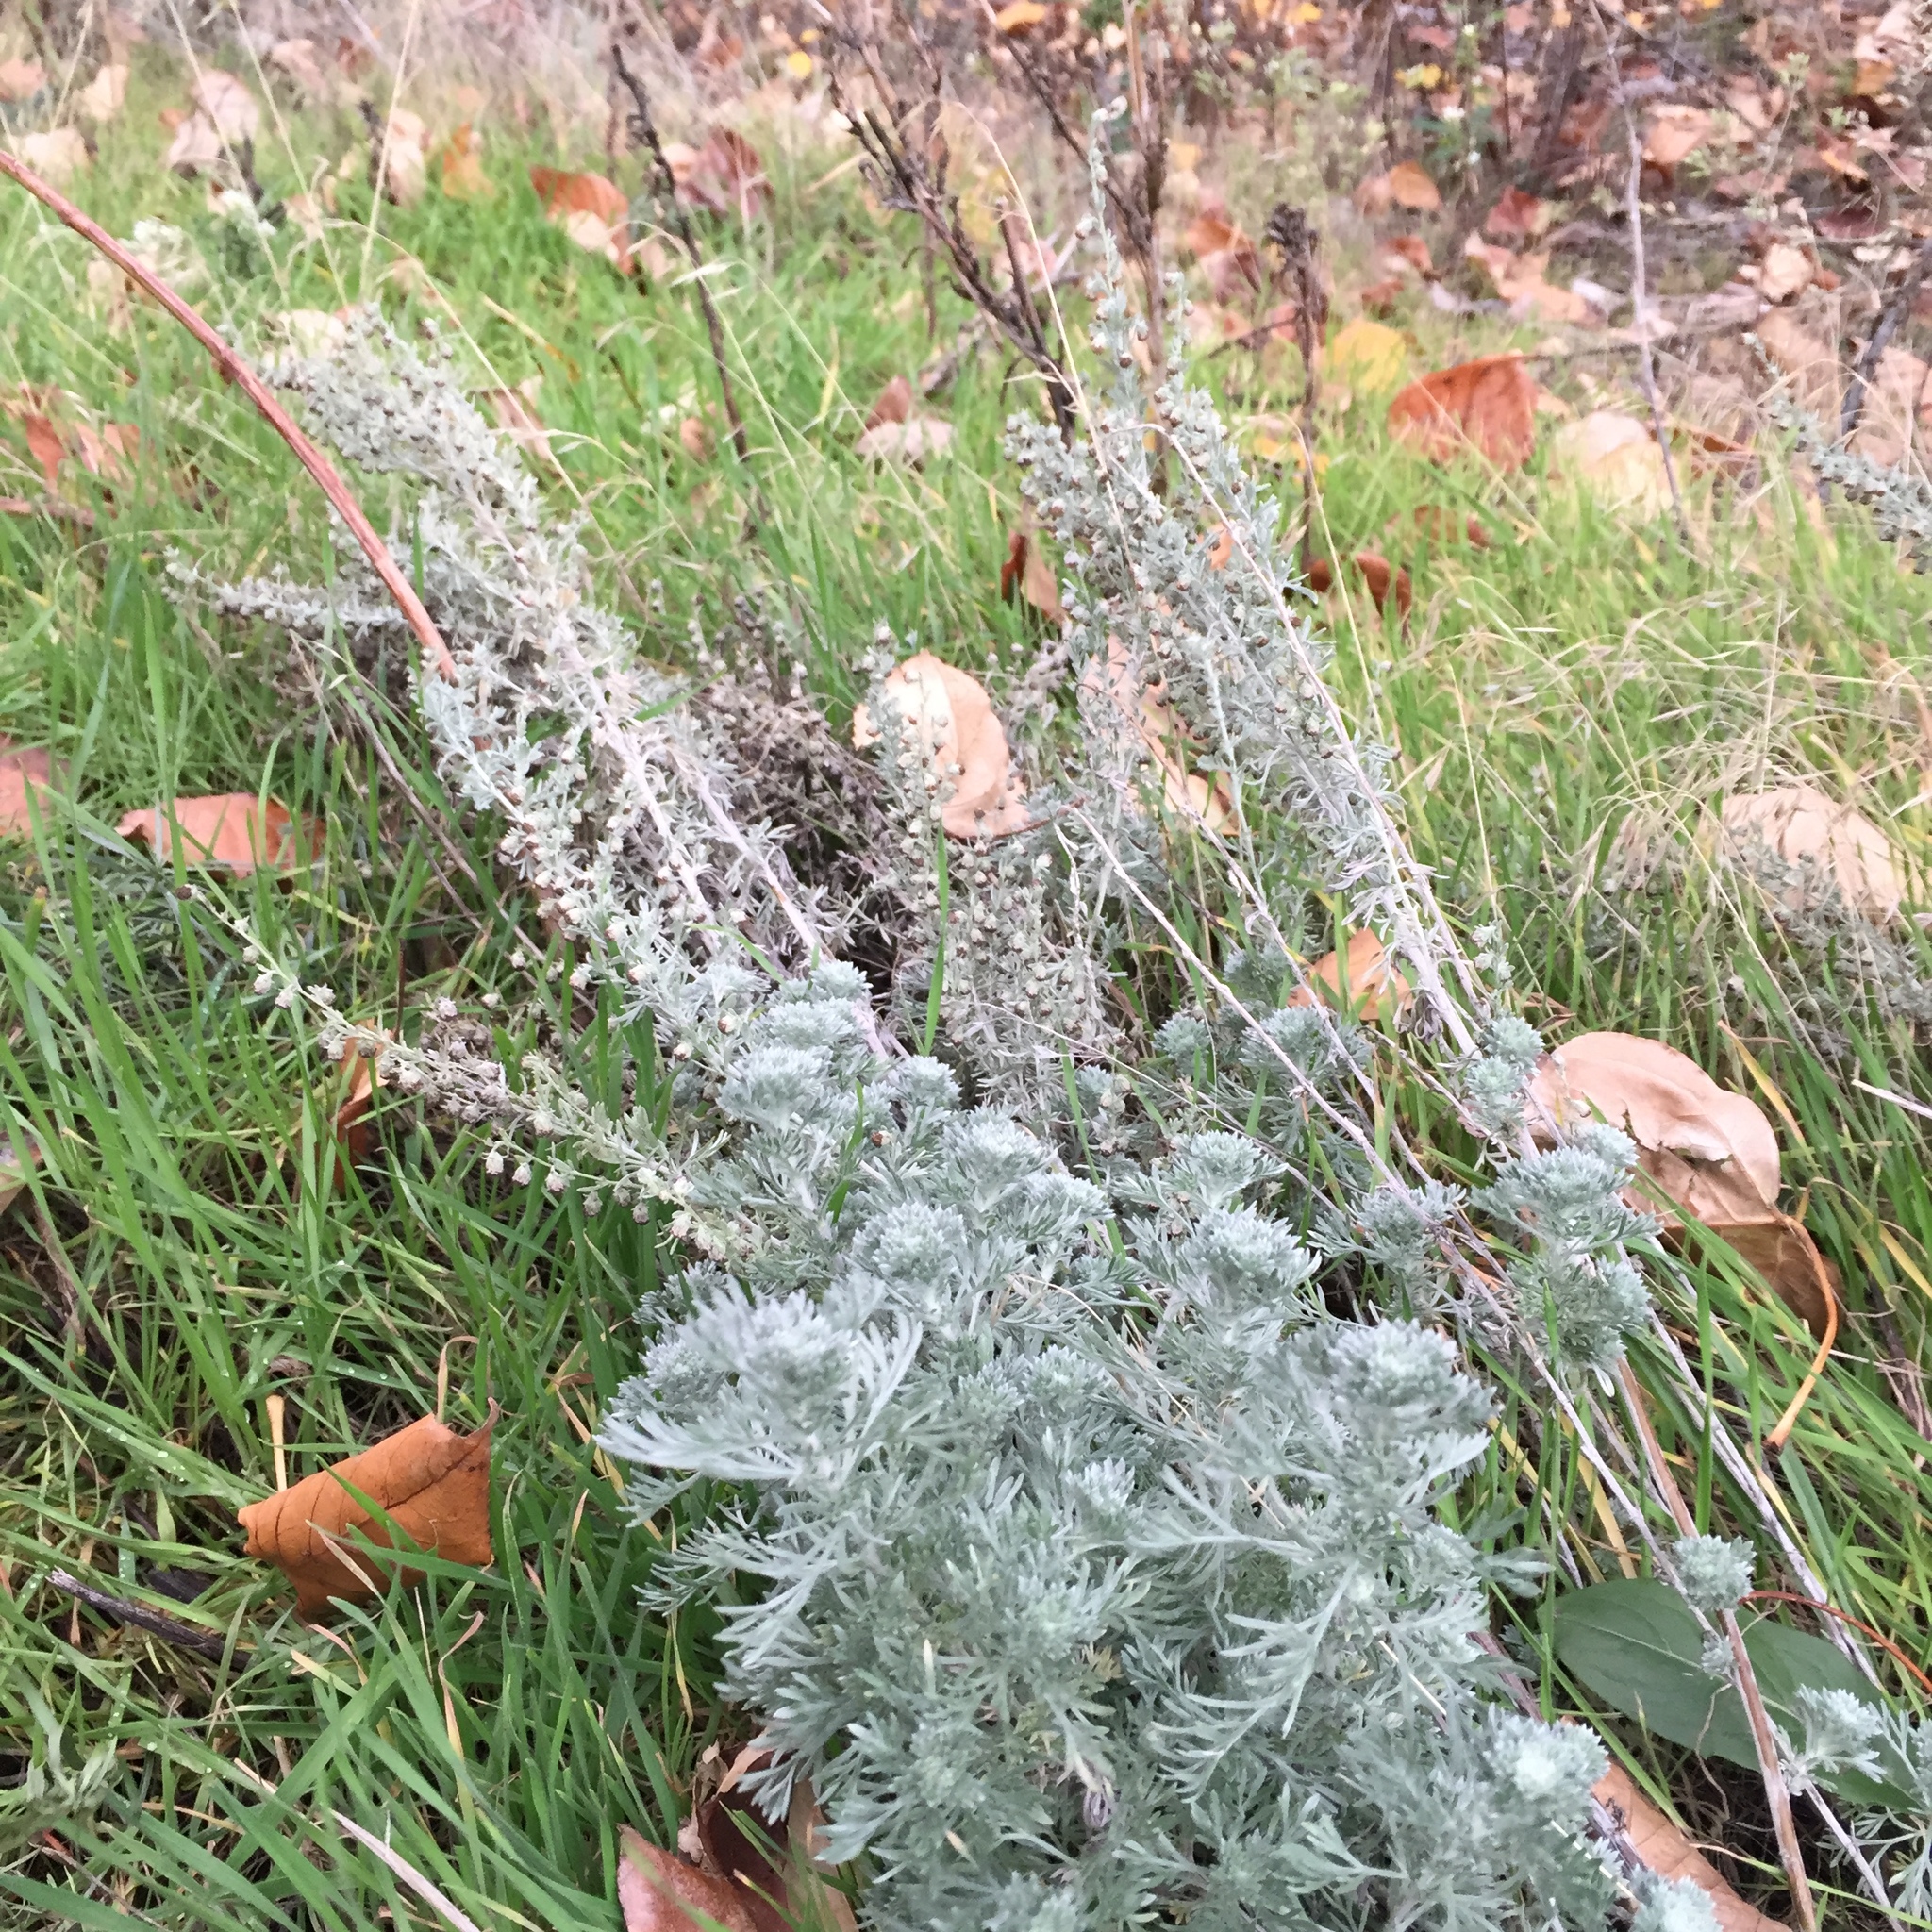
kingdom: Plantae
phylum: Tracheophyta
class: Magnoliopsida
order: Asterales
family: Asteraceae
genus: Artemisia
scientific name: Artemisia frigida
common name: Prairie sagewort
